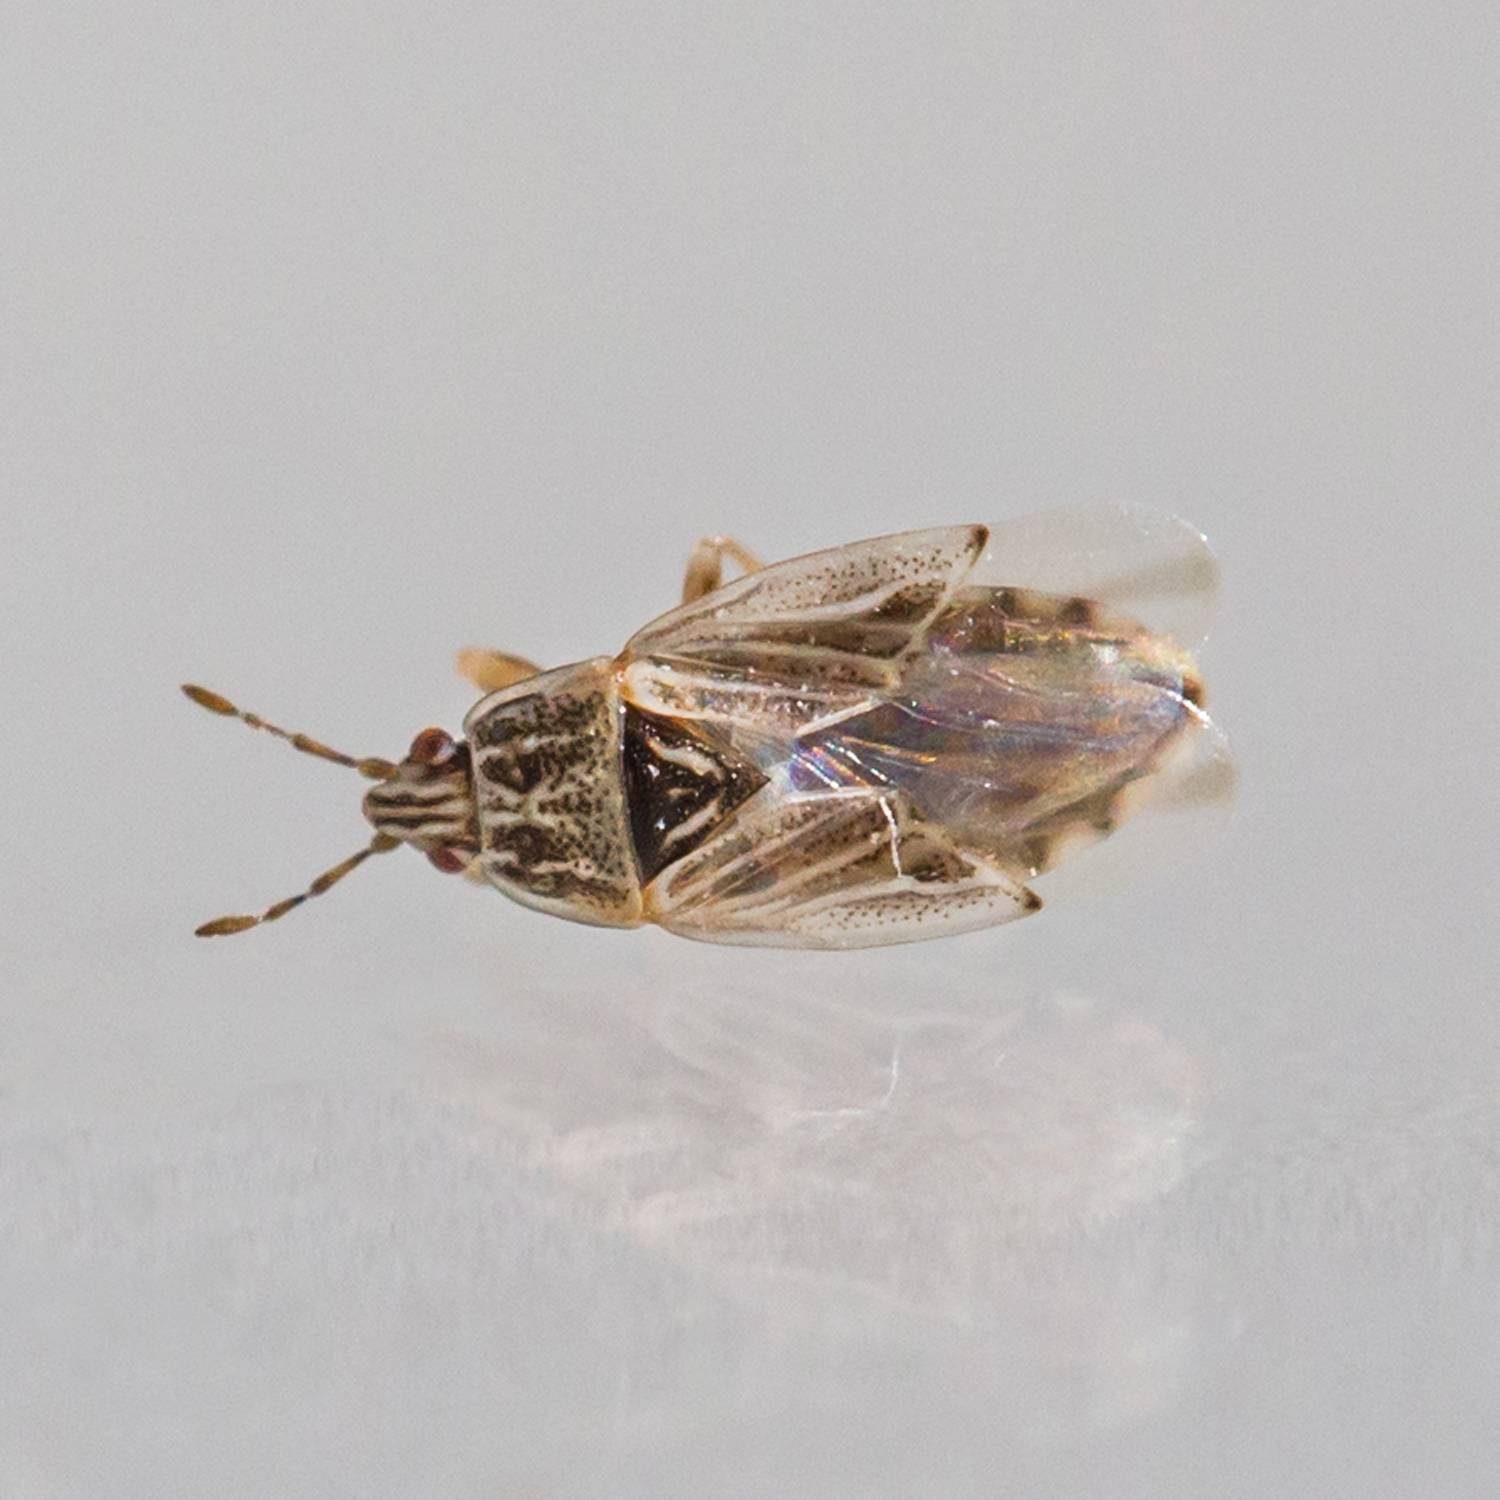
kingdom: Animalia
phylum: Arthropoda
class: Insecta
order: Hemiptera
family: Artheneidae
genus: Holcocranum
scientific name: Holcocranum saturejae
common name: Cattail bug
